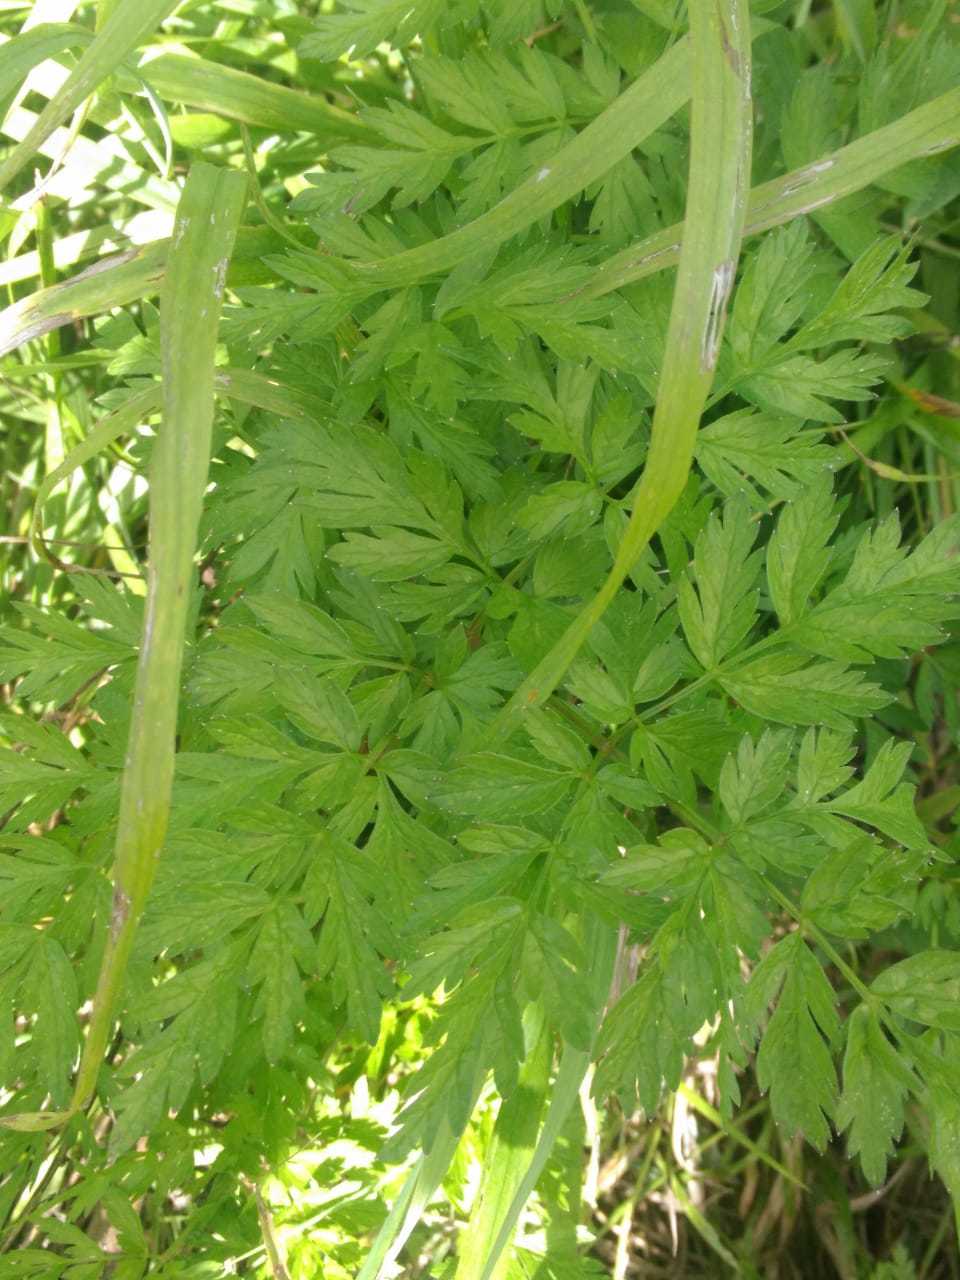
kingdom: Plantae
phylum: Tracheophyta
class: Magnoliopsida
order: Apiales
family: Apiaceae
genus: Anthriscus
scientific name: Anthriscus sylvestris
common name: Cow parsley
